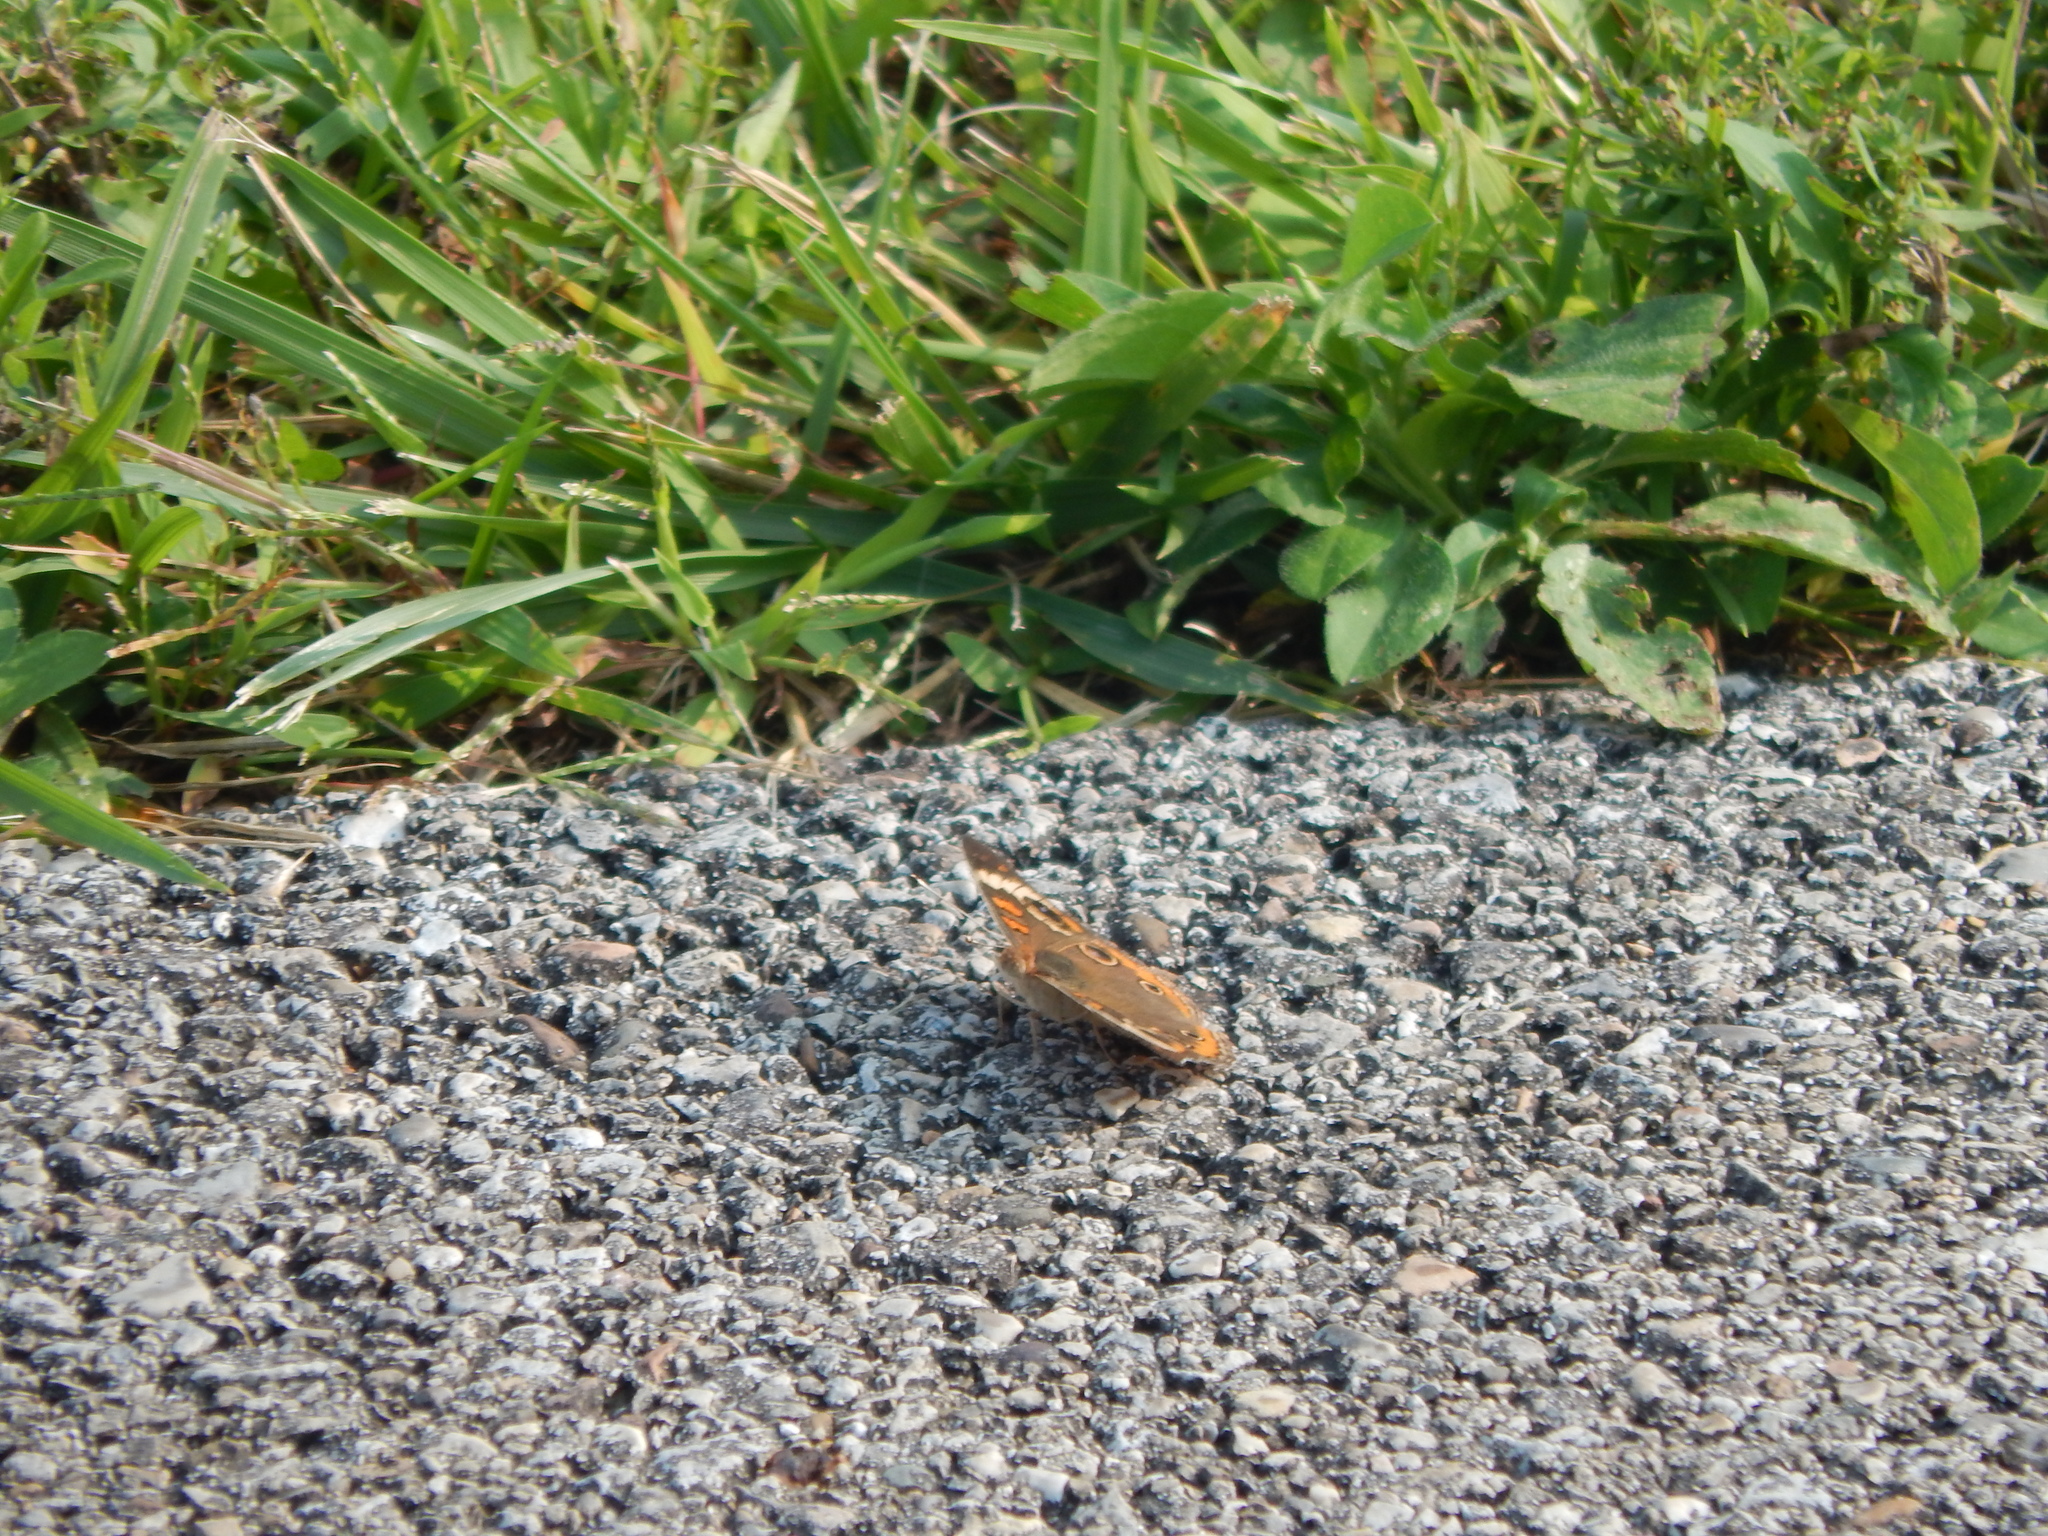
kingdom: Animalia
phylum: Arthropoda
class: Insecta
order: Lepidoptera
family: Nymphalidae
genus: Junonia
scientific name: Junonia coenia
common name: Common buckeye
